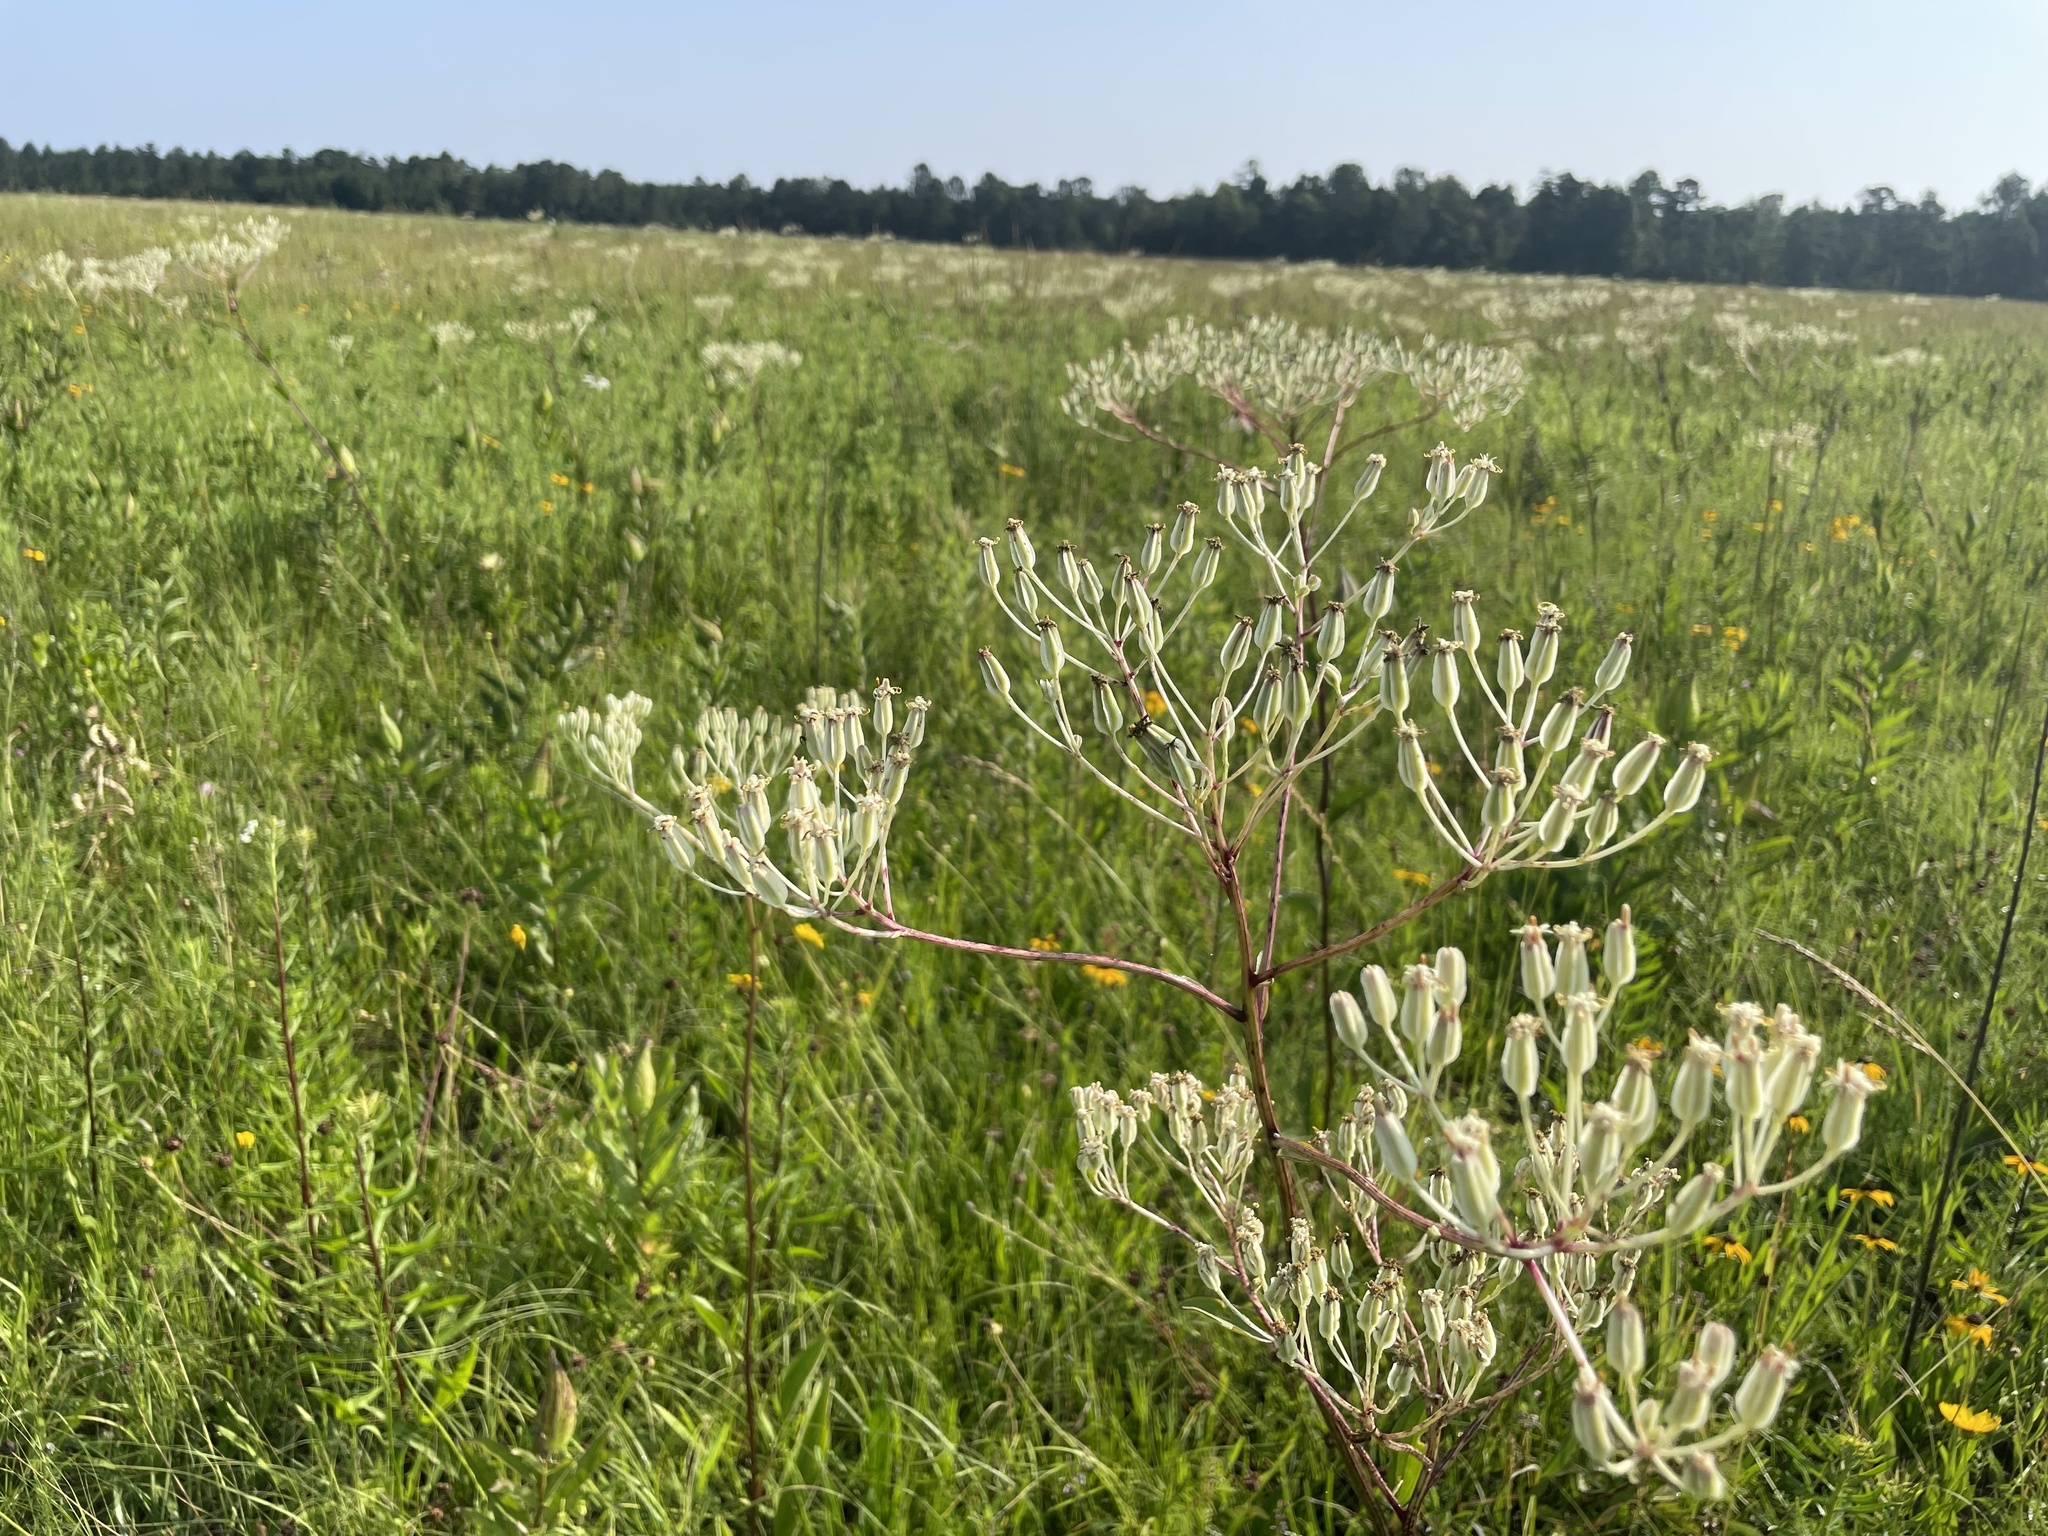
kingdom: Plantae
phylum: Tracheophyta
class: Magnoliopsida
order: Asterales
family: Asteraceae
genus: Arnoglossum
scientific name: Arnoglossum plantagineum
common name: Groove-stemmed indian-plantain
